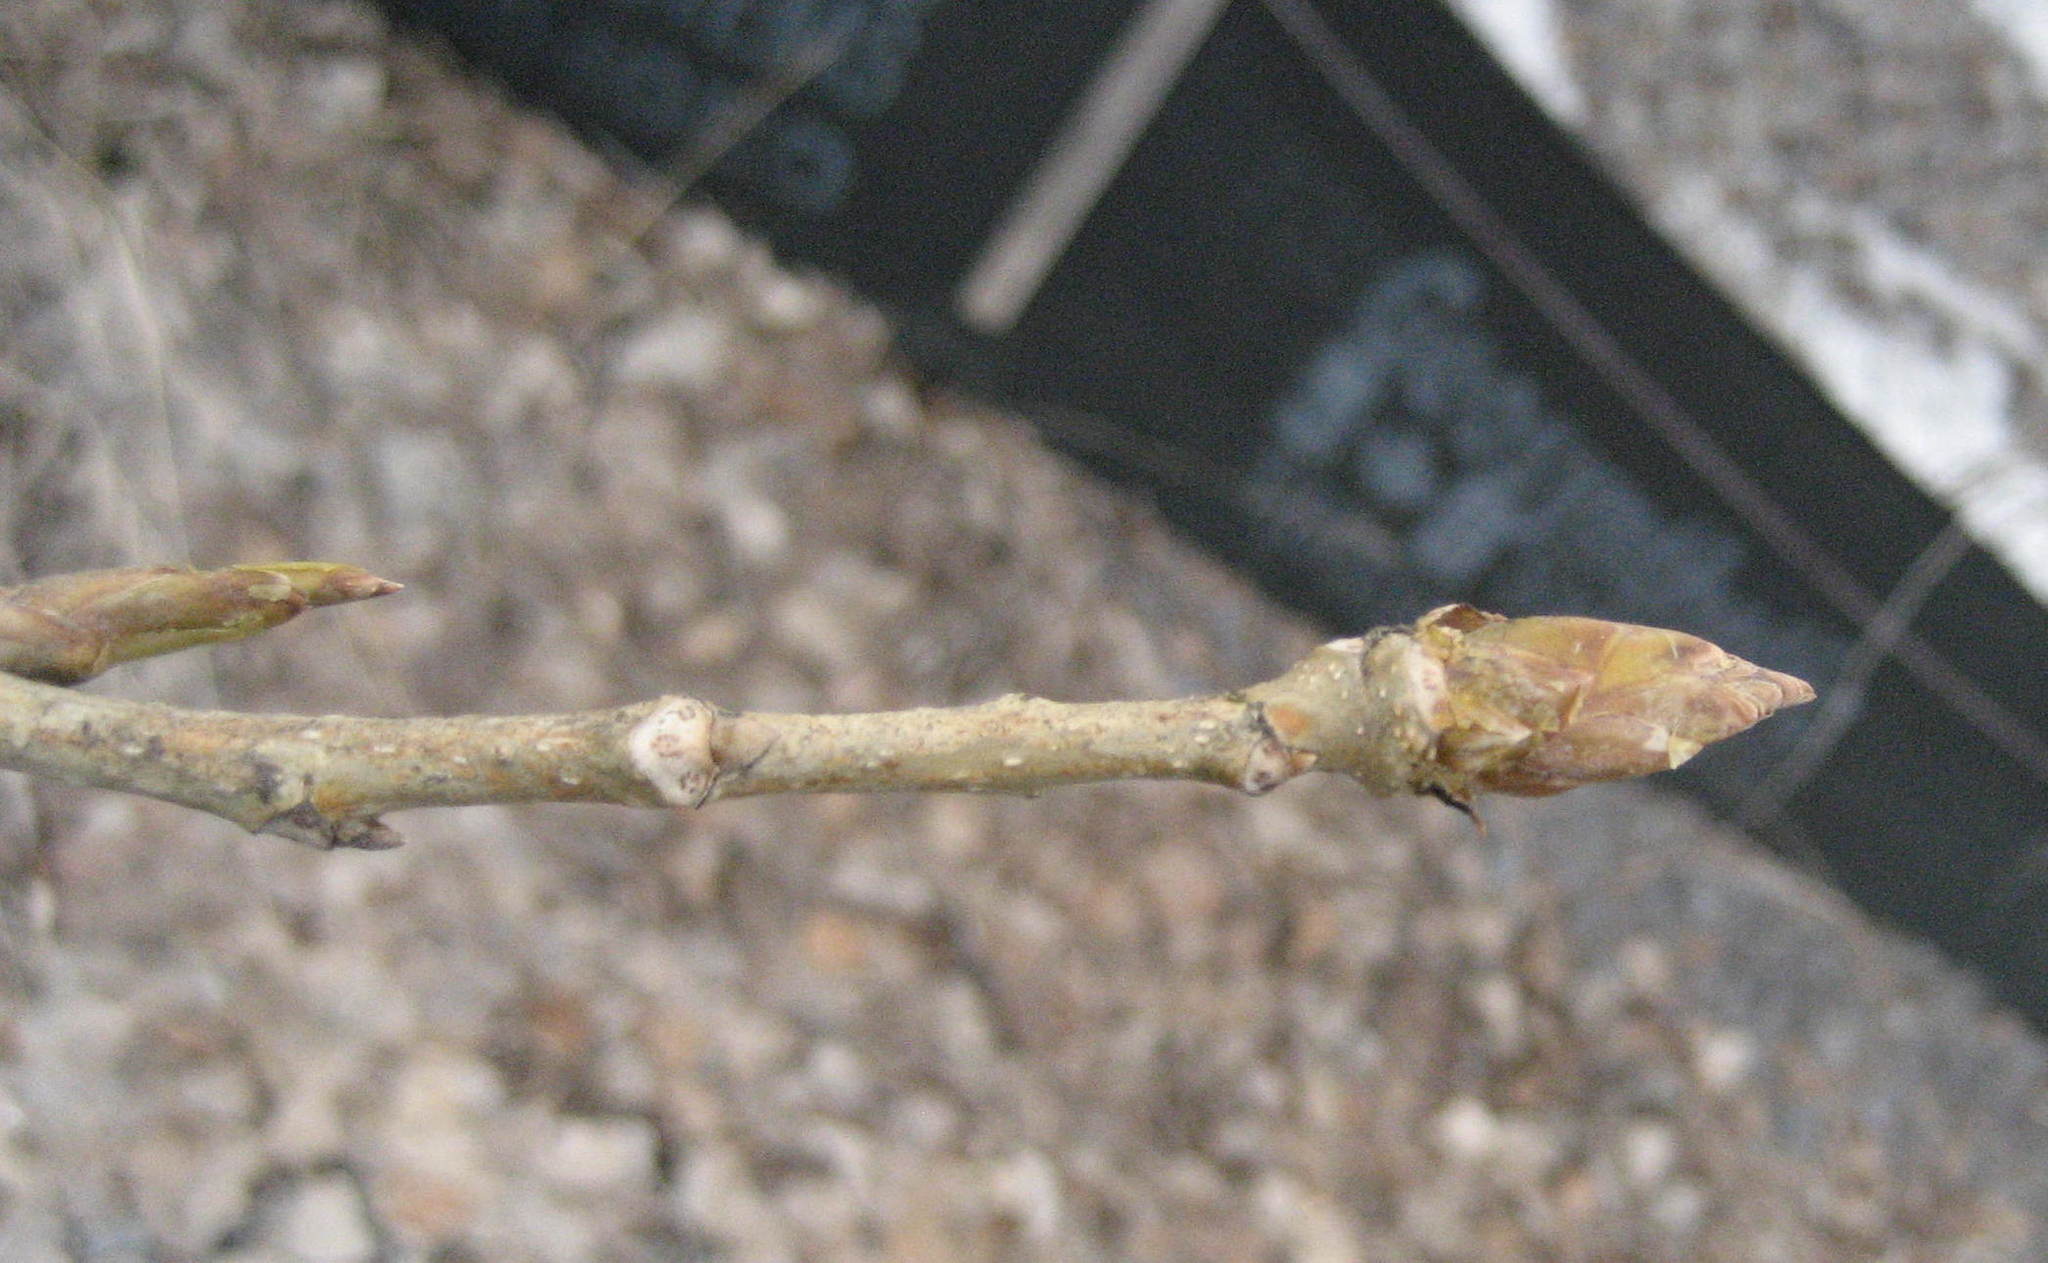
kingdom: Plantae
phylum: Tracheophyta
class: Magnoliopsida
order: Malpighiales
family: Salicaceae
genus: Populus
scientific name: Populus deltoides
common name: Eastern cottonwood
